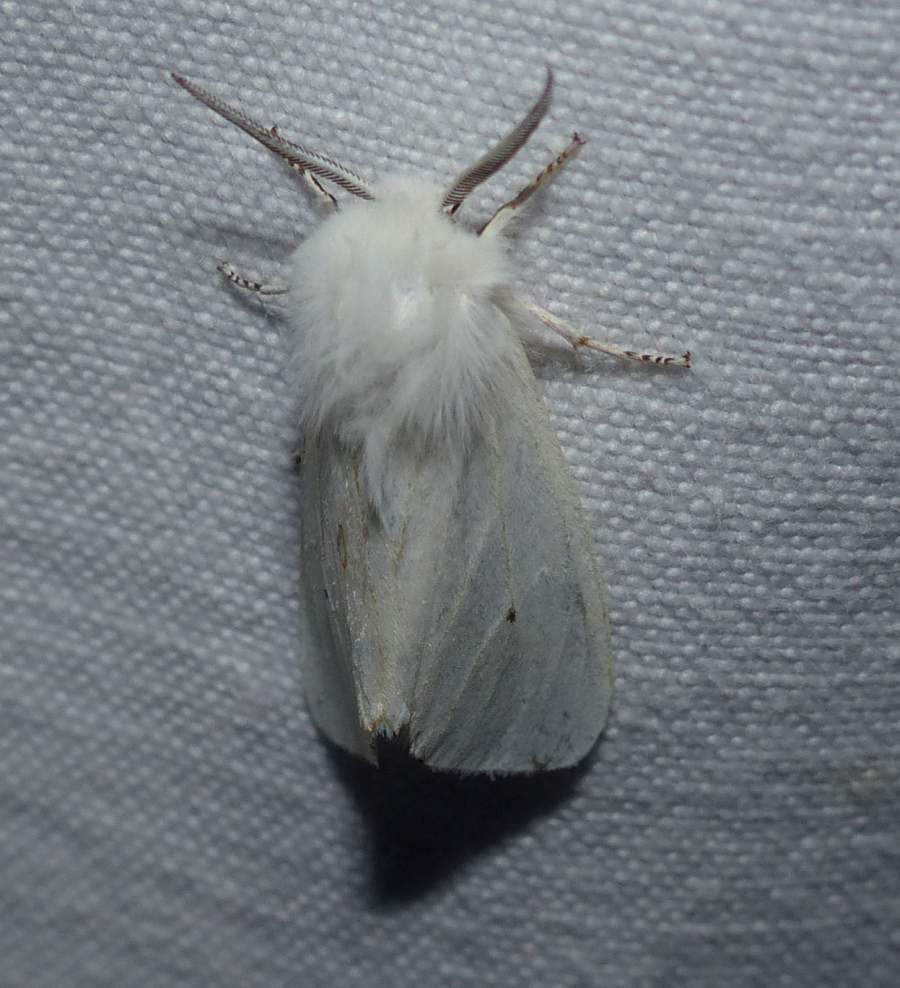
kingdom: Animalia
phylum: Arthropoda
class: Insecta
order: Lepidoptera
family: Erebidae
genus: Spilosoma
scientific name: Spilosoma virginica
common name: Virginia tiger moth
